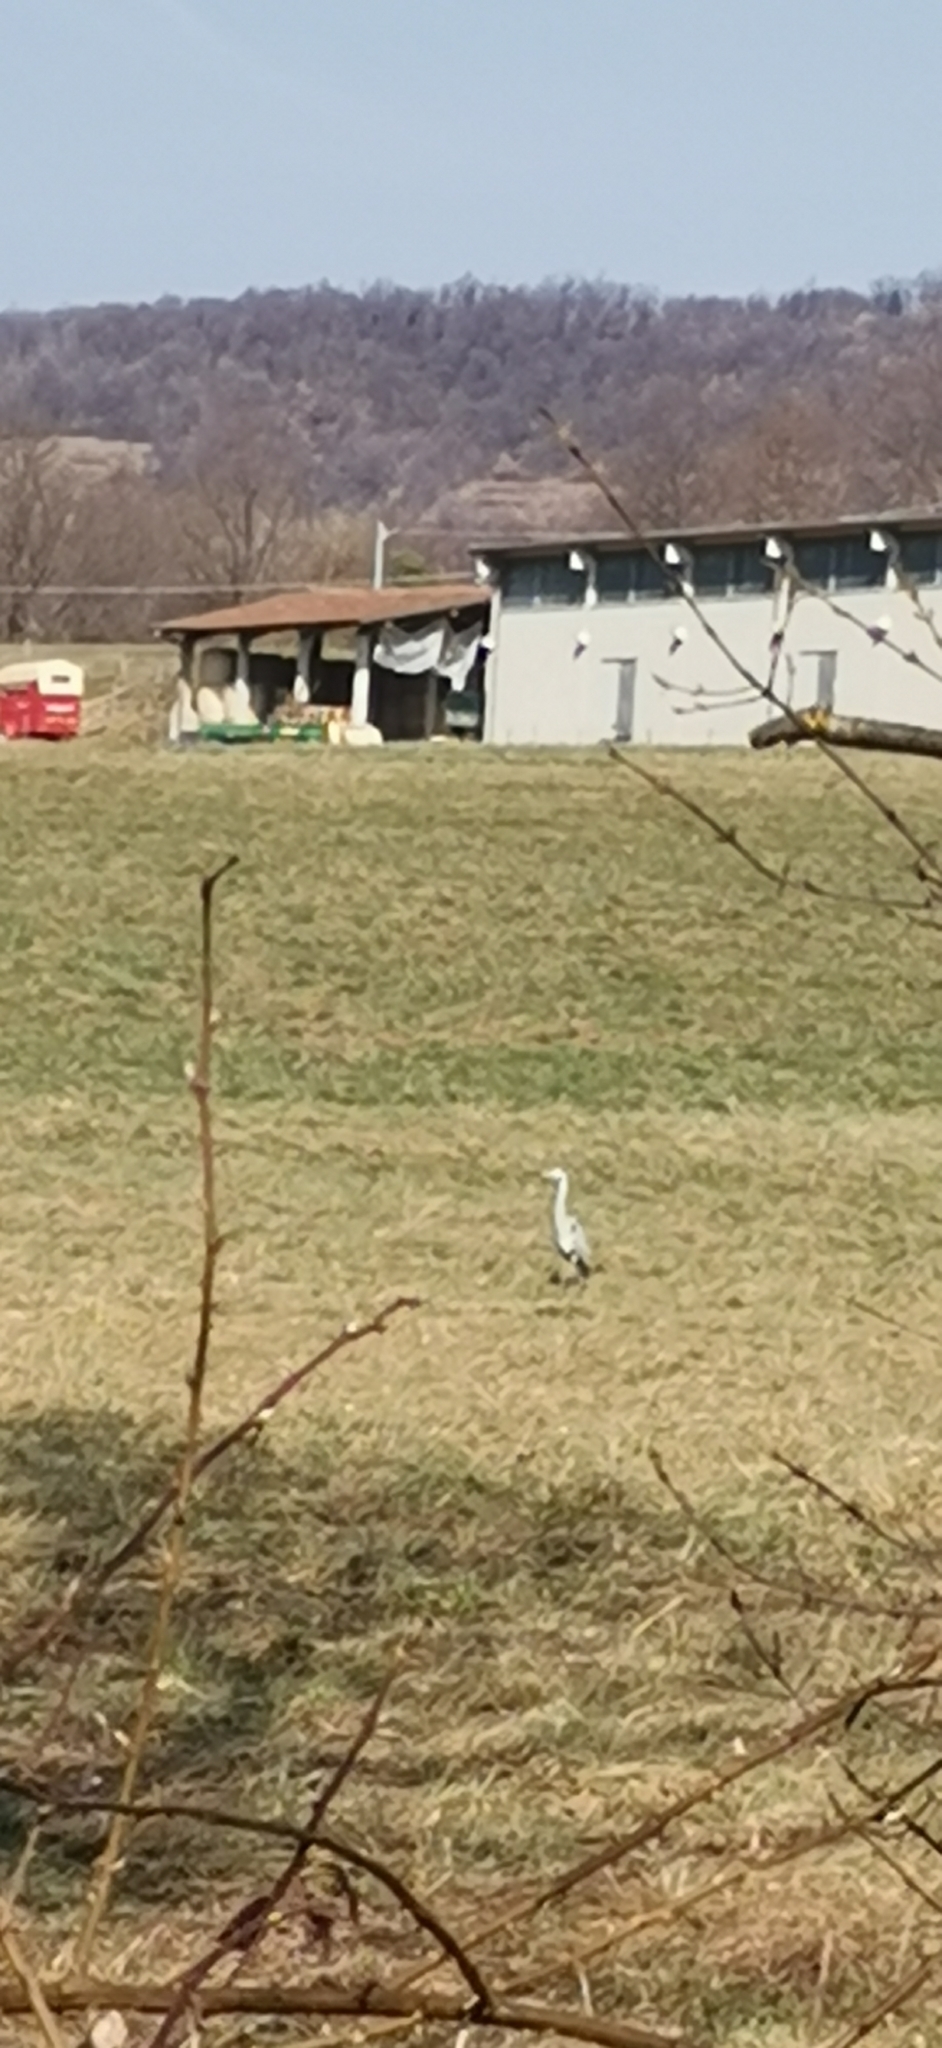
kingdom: Animalia
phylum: Chordata
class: Aves
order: Pelecaniformes
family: Ardeidae
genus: Ardea
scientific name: Ardea cinerea
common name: Grey heron
